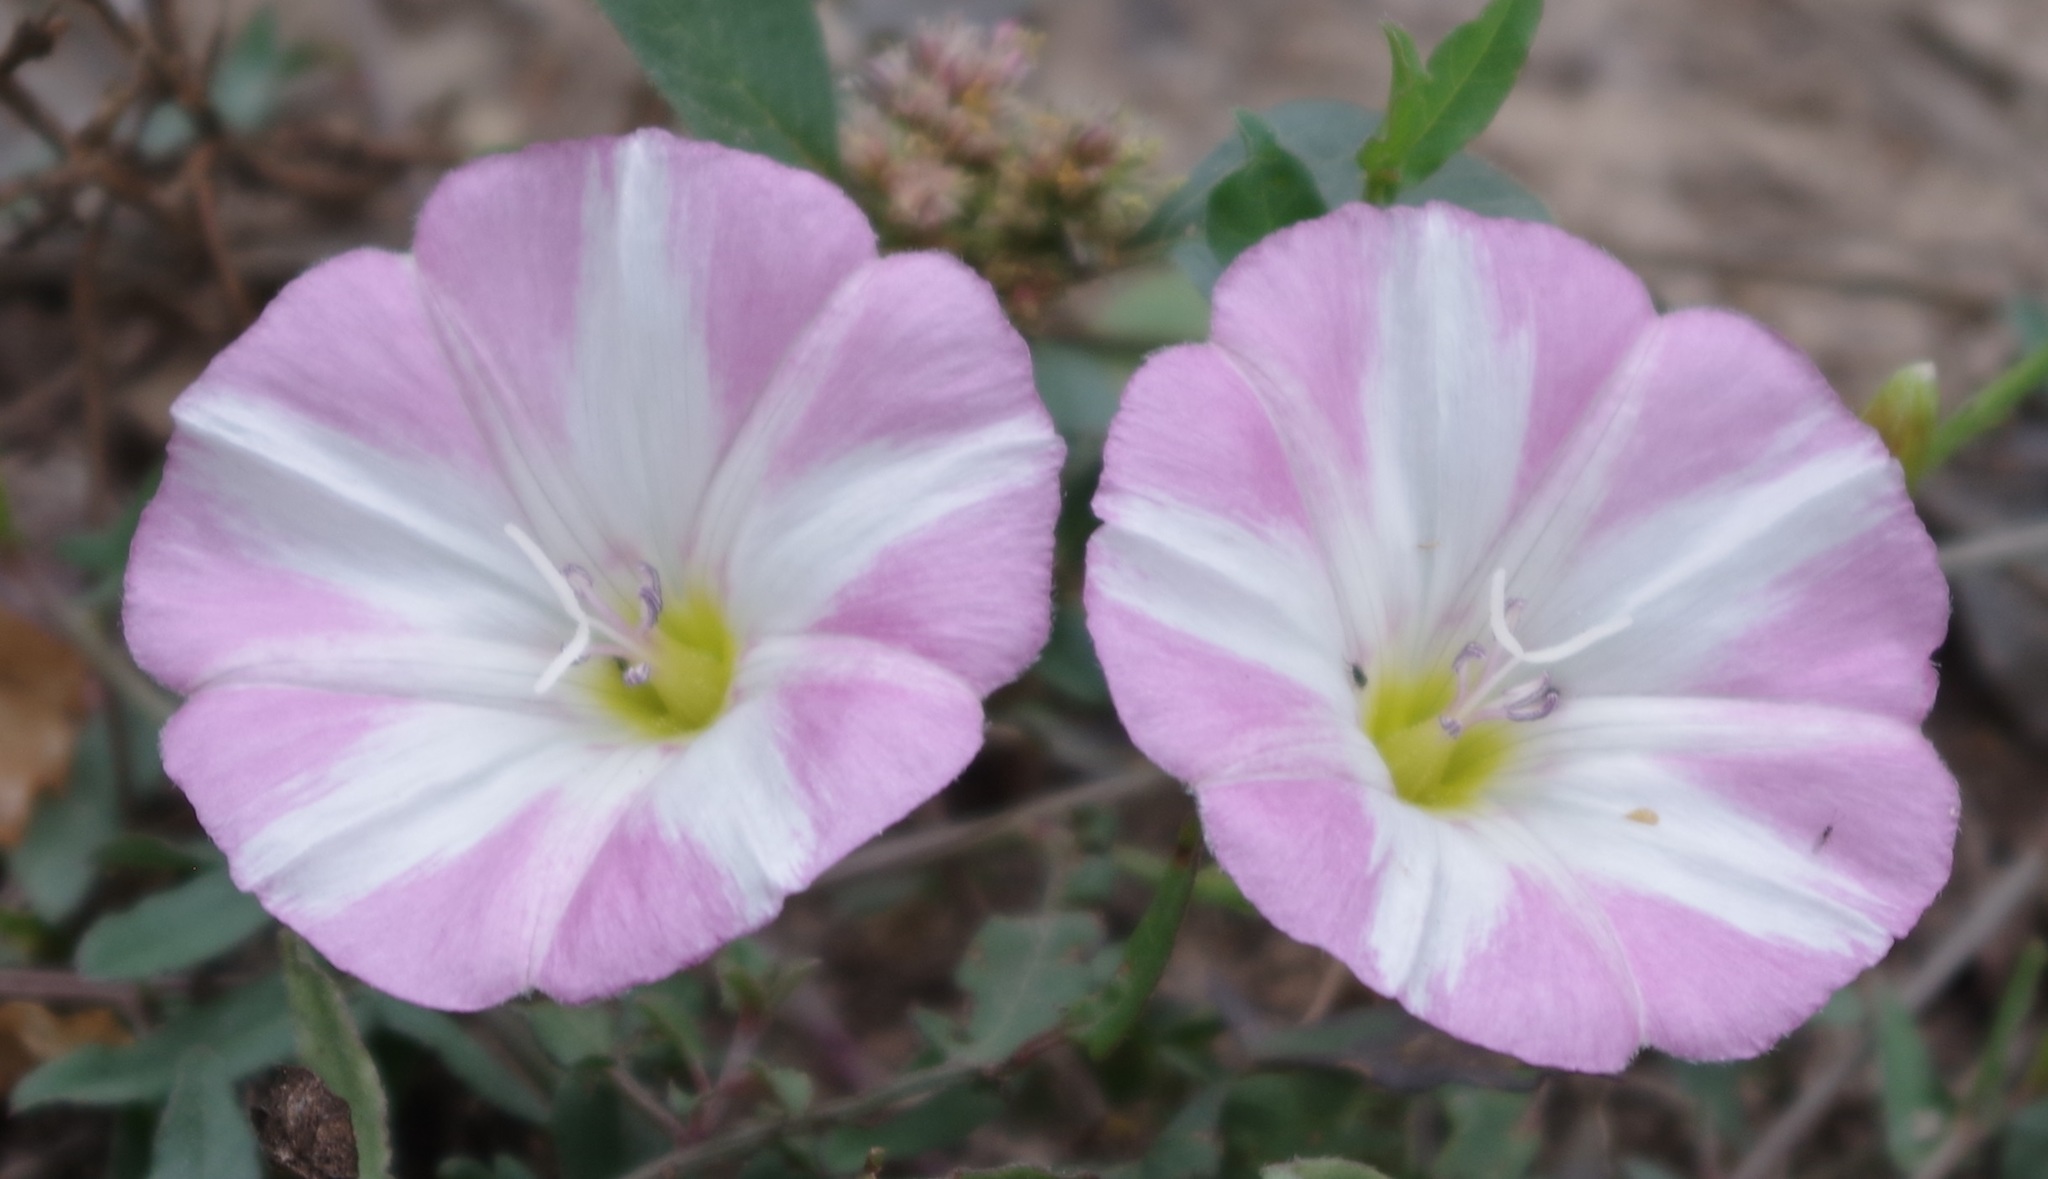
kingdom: Plantae
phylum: Tracheophyta
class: Magnoliopsida
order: Solanales
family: Convolvulaceae
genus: Convolvulus
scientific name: Convolvulus arvensis
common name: Field bindweed
